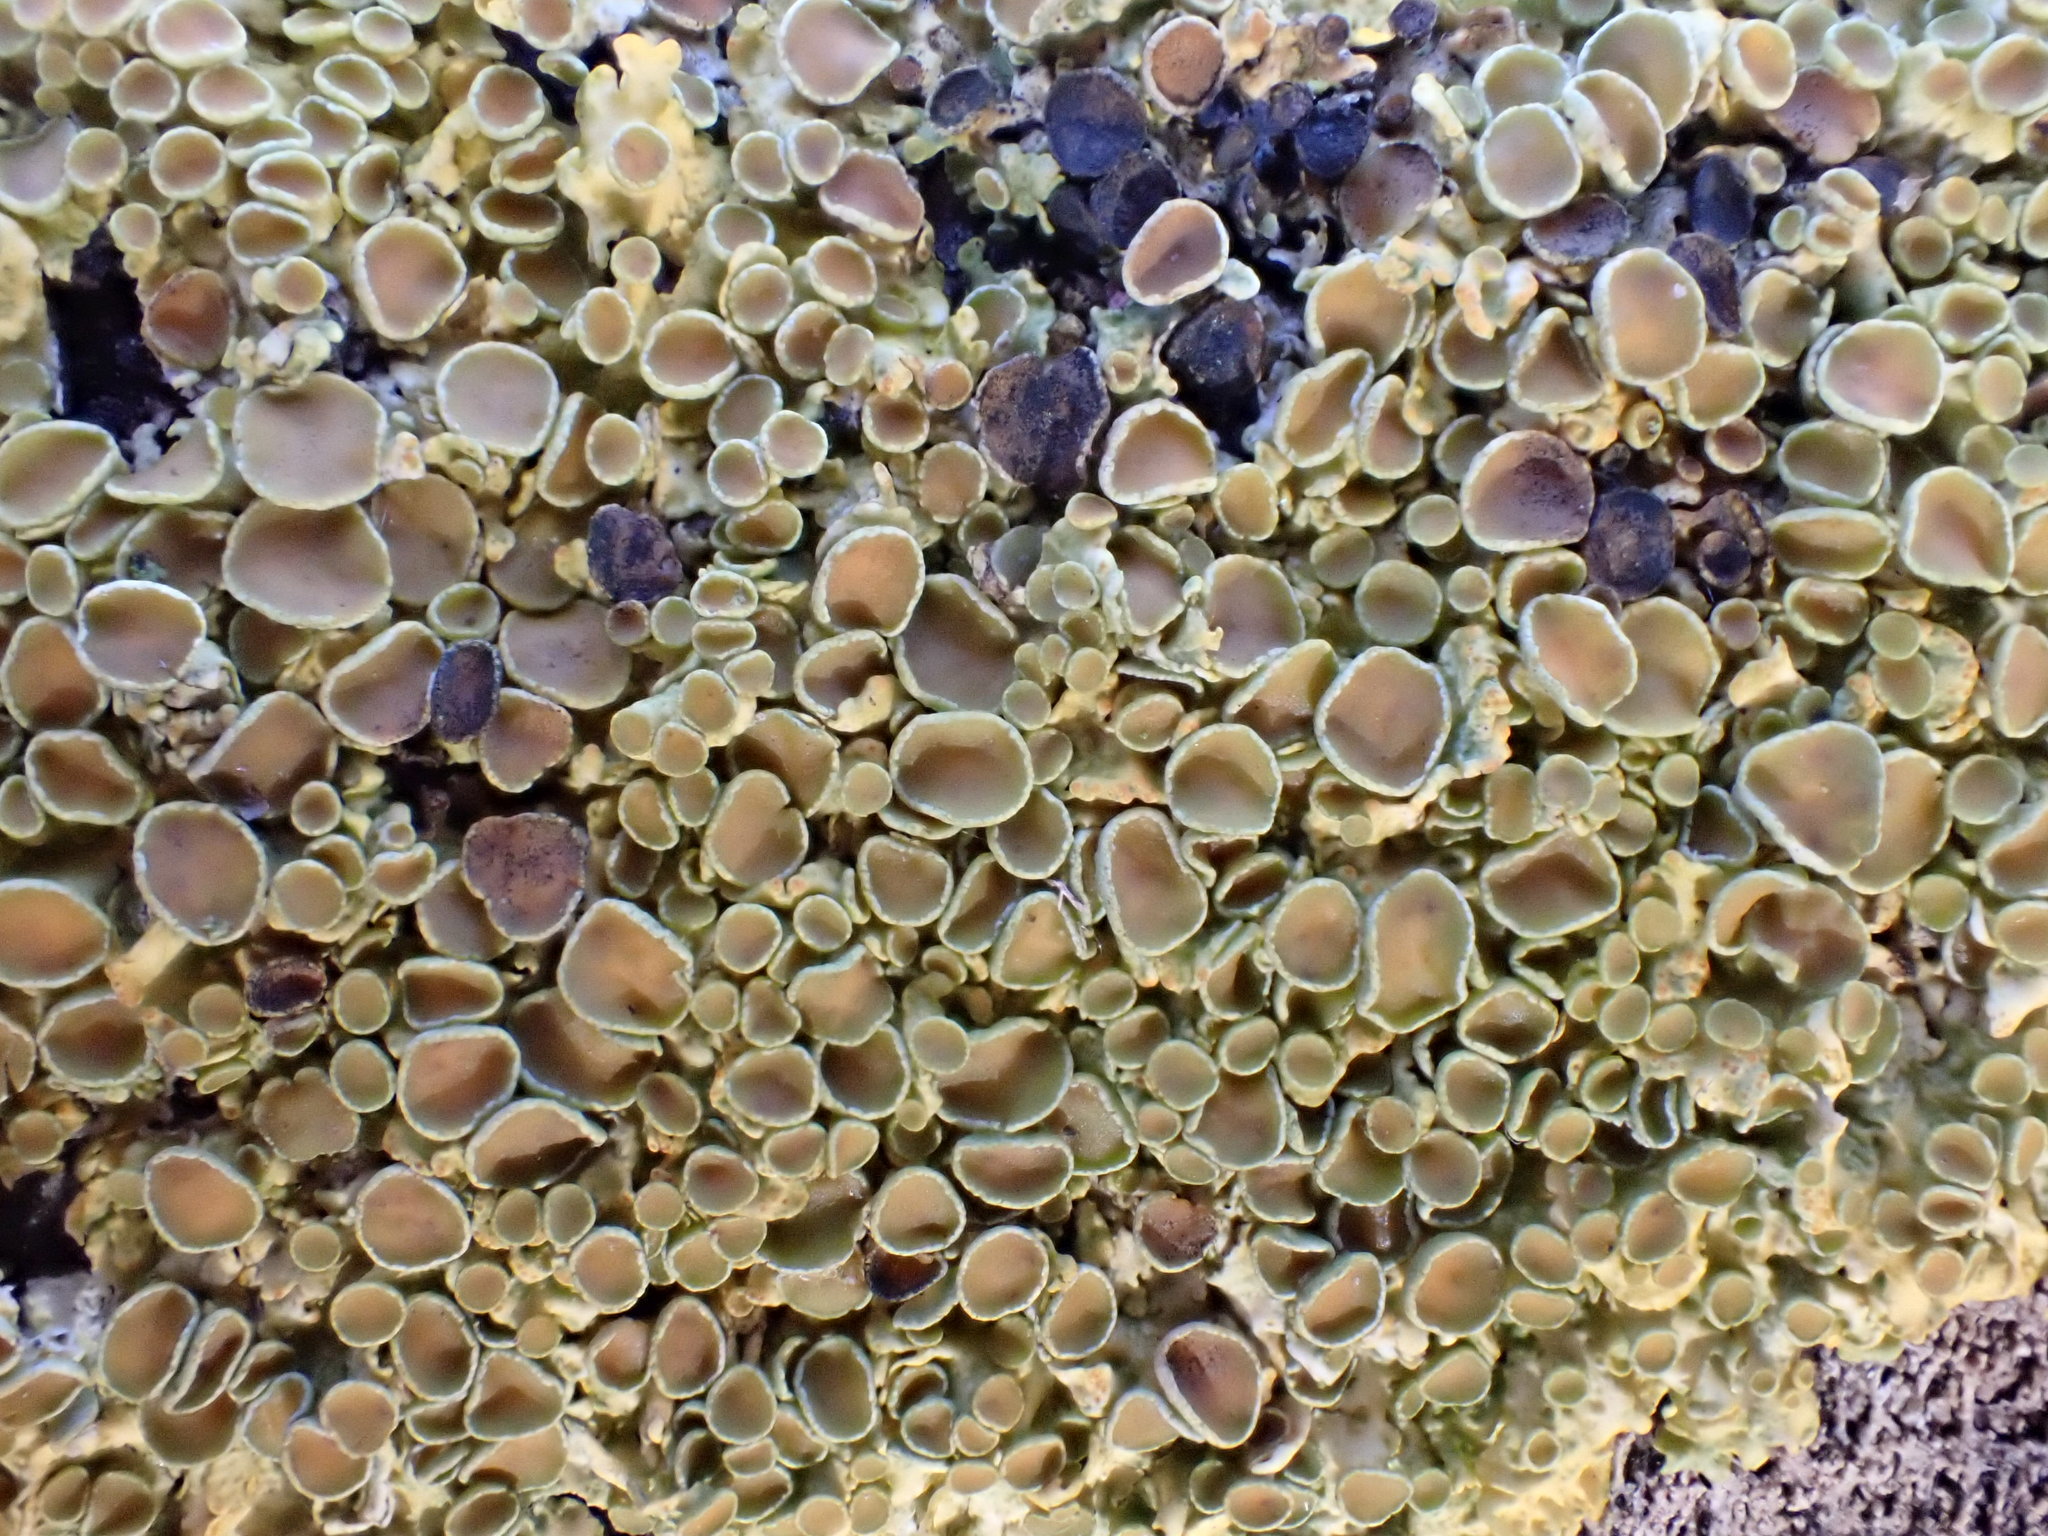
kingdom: Fungi
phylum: Ascomycota
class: Lecanoromycetes
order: Teloschistales
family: Teloschistaceae
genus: Xanthoria
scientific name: Xanthoria parietina
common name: Common orange lichen
